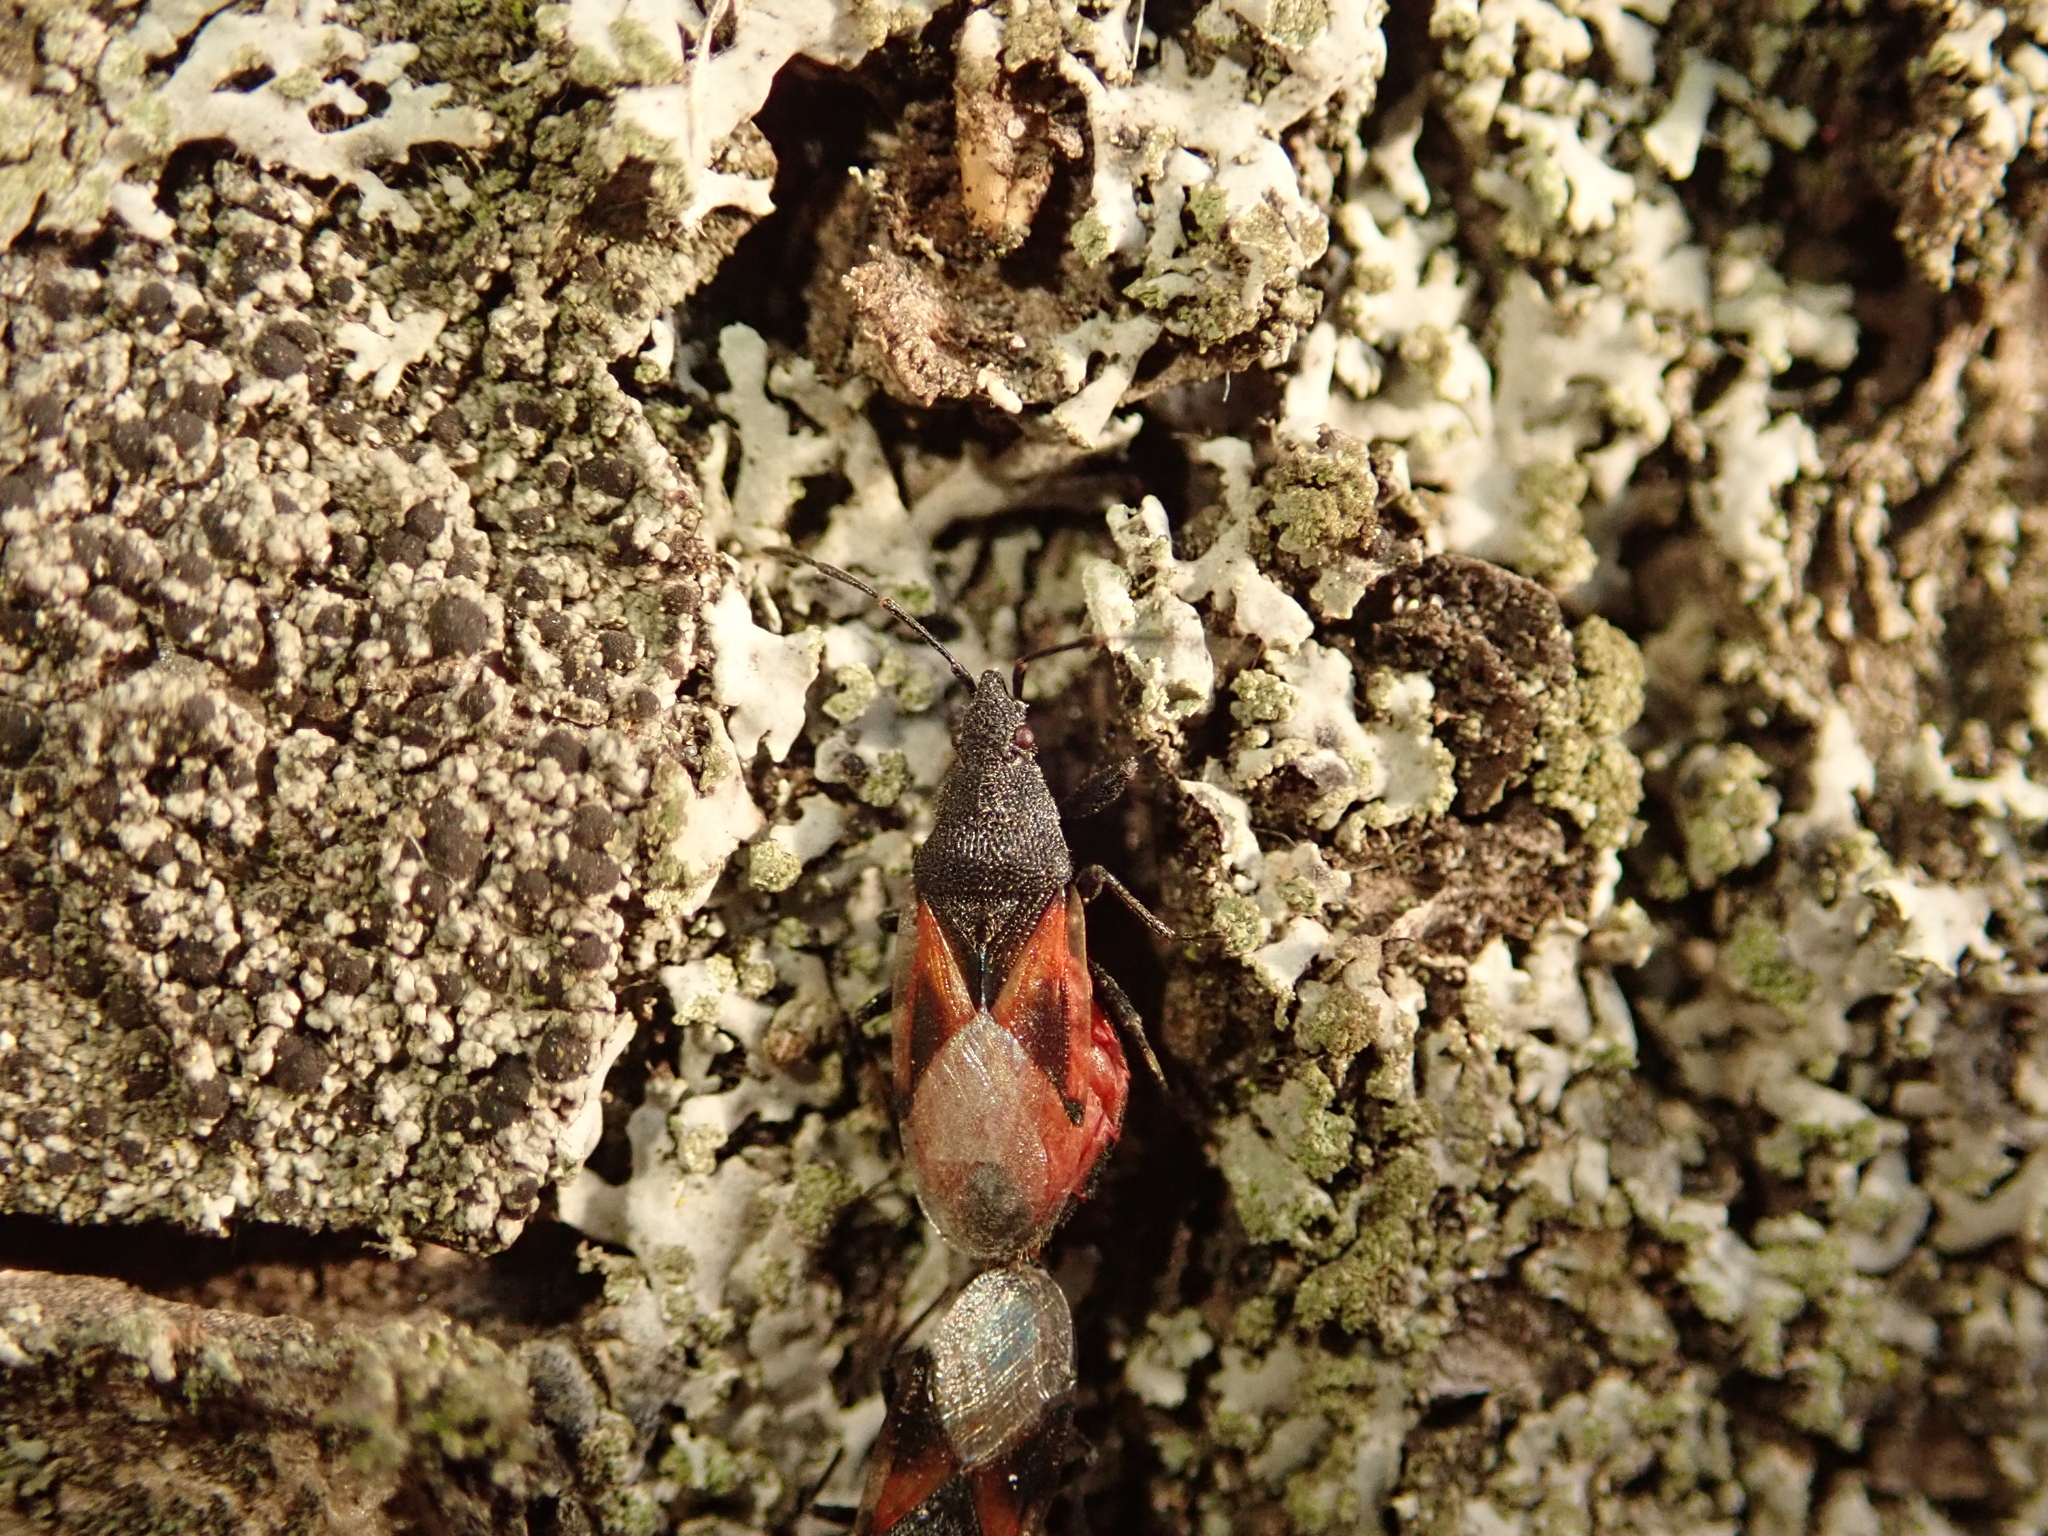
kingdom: Animalia
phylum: Arthropoda
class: Insecta
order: Hemiptera
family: Oxycarenidae
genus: Oxycarenus
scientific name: Oxycarenus lavaterae
